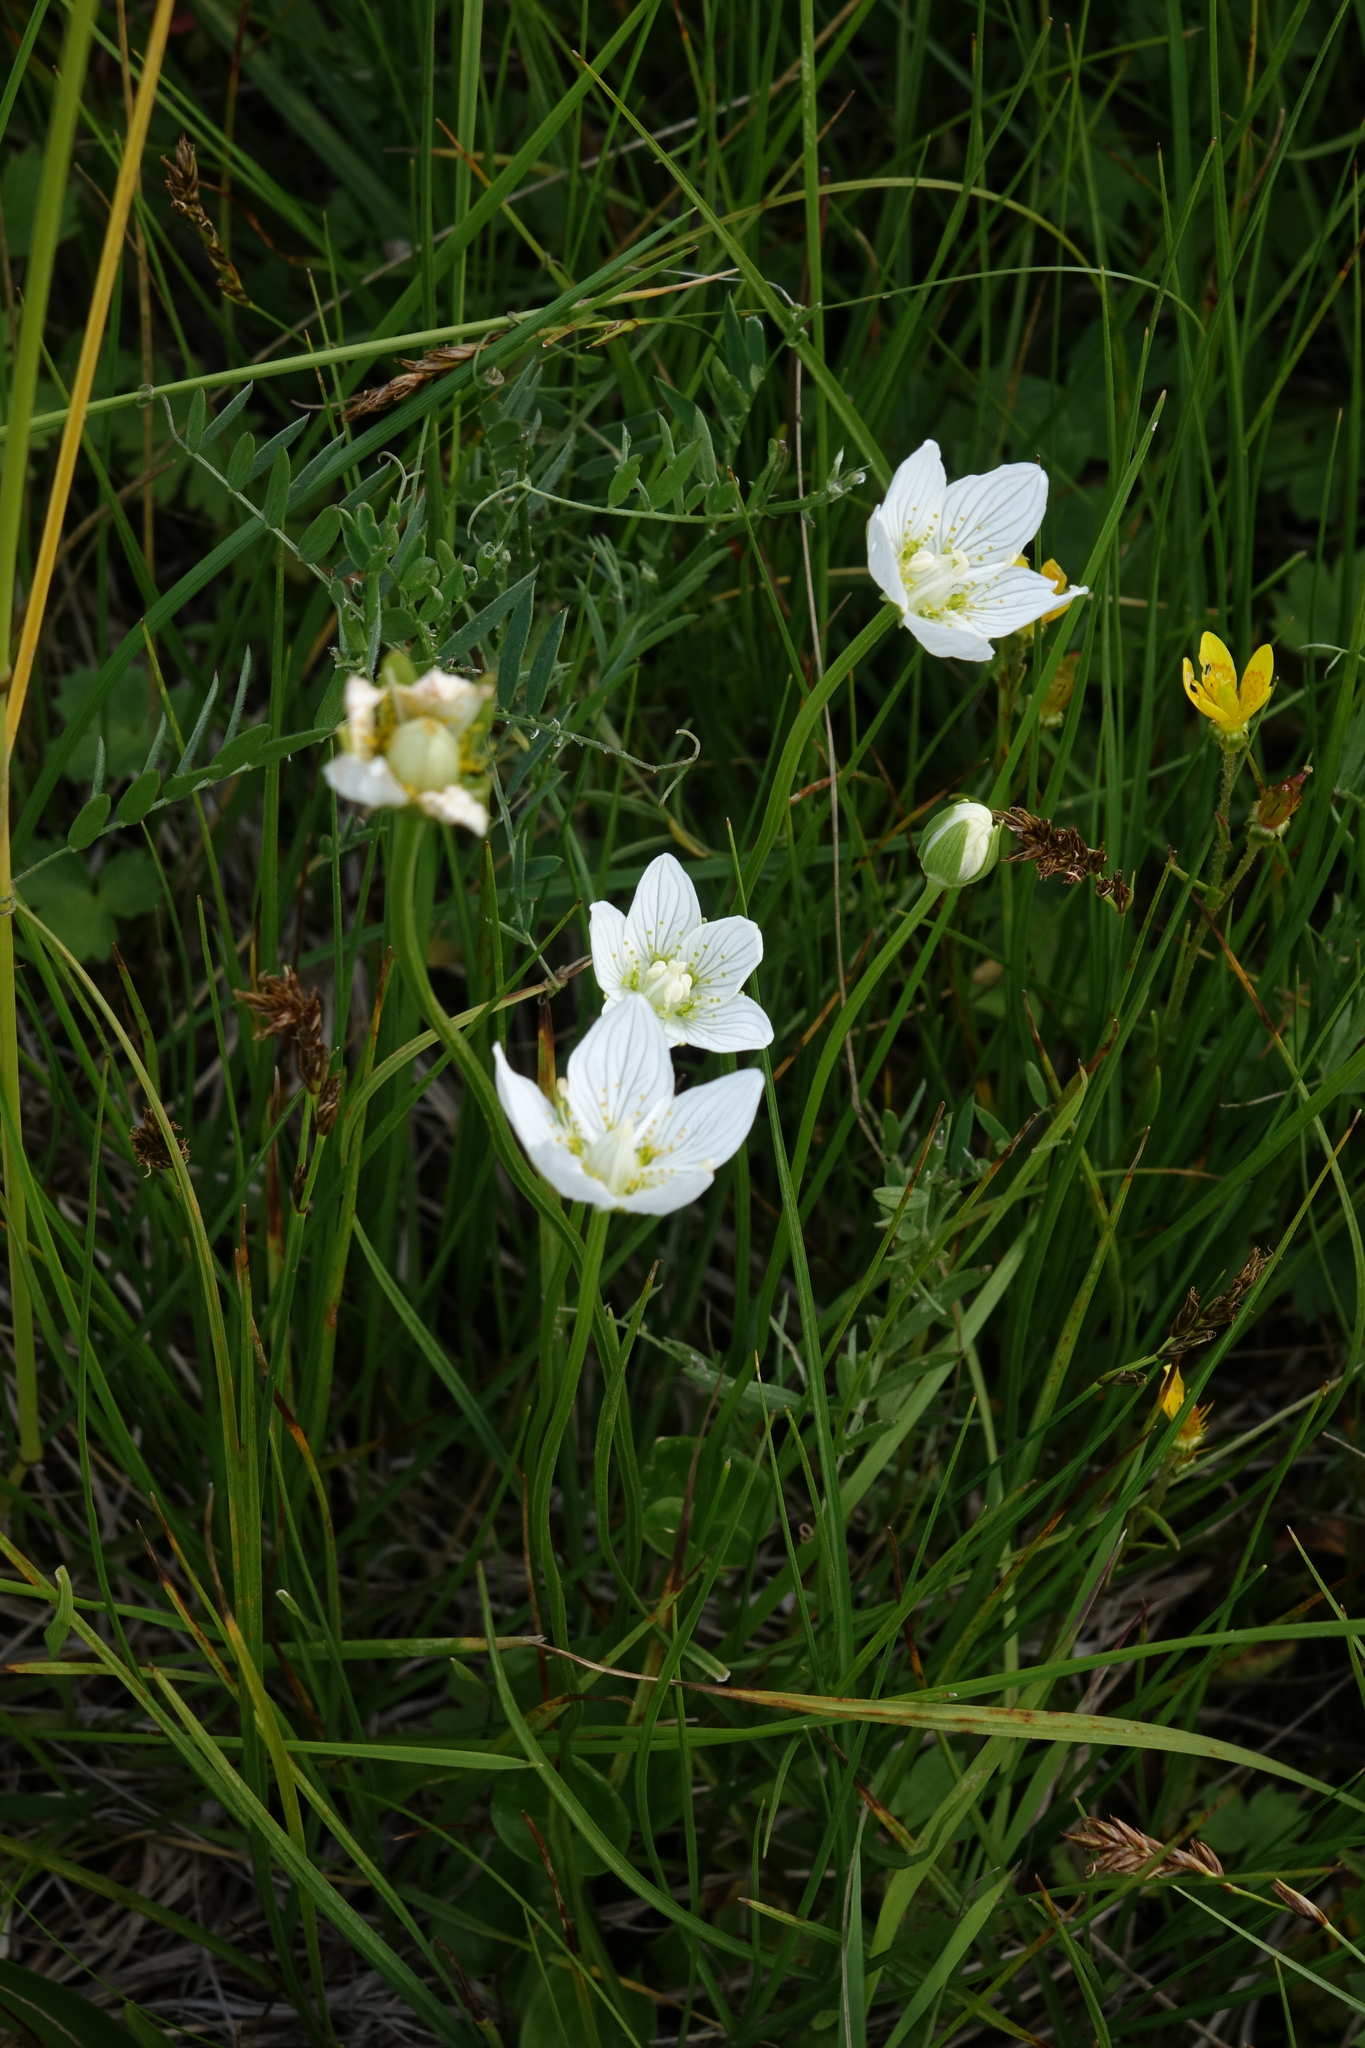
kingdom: Plantae
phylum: Tracheophyta
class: Magnoliopsida
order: Celastrales
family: Parnassiaceae
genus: Parnassia
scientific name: Parnassia palustris
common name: Grass-of-parnassus
